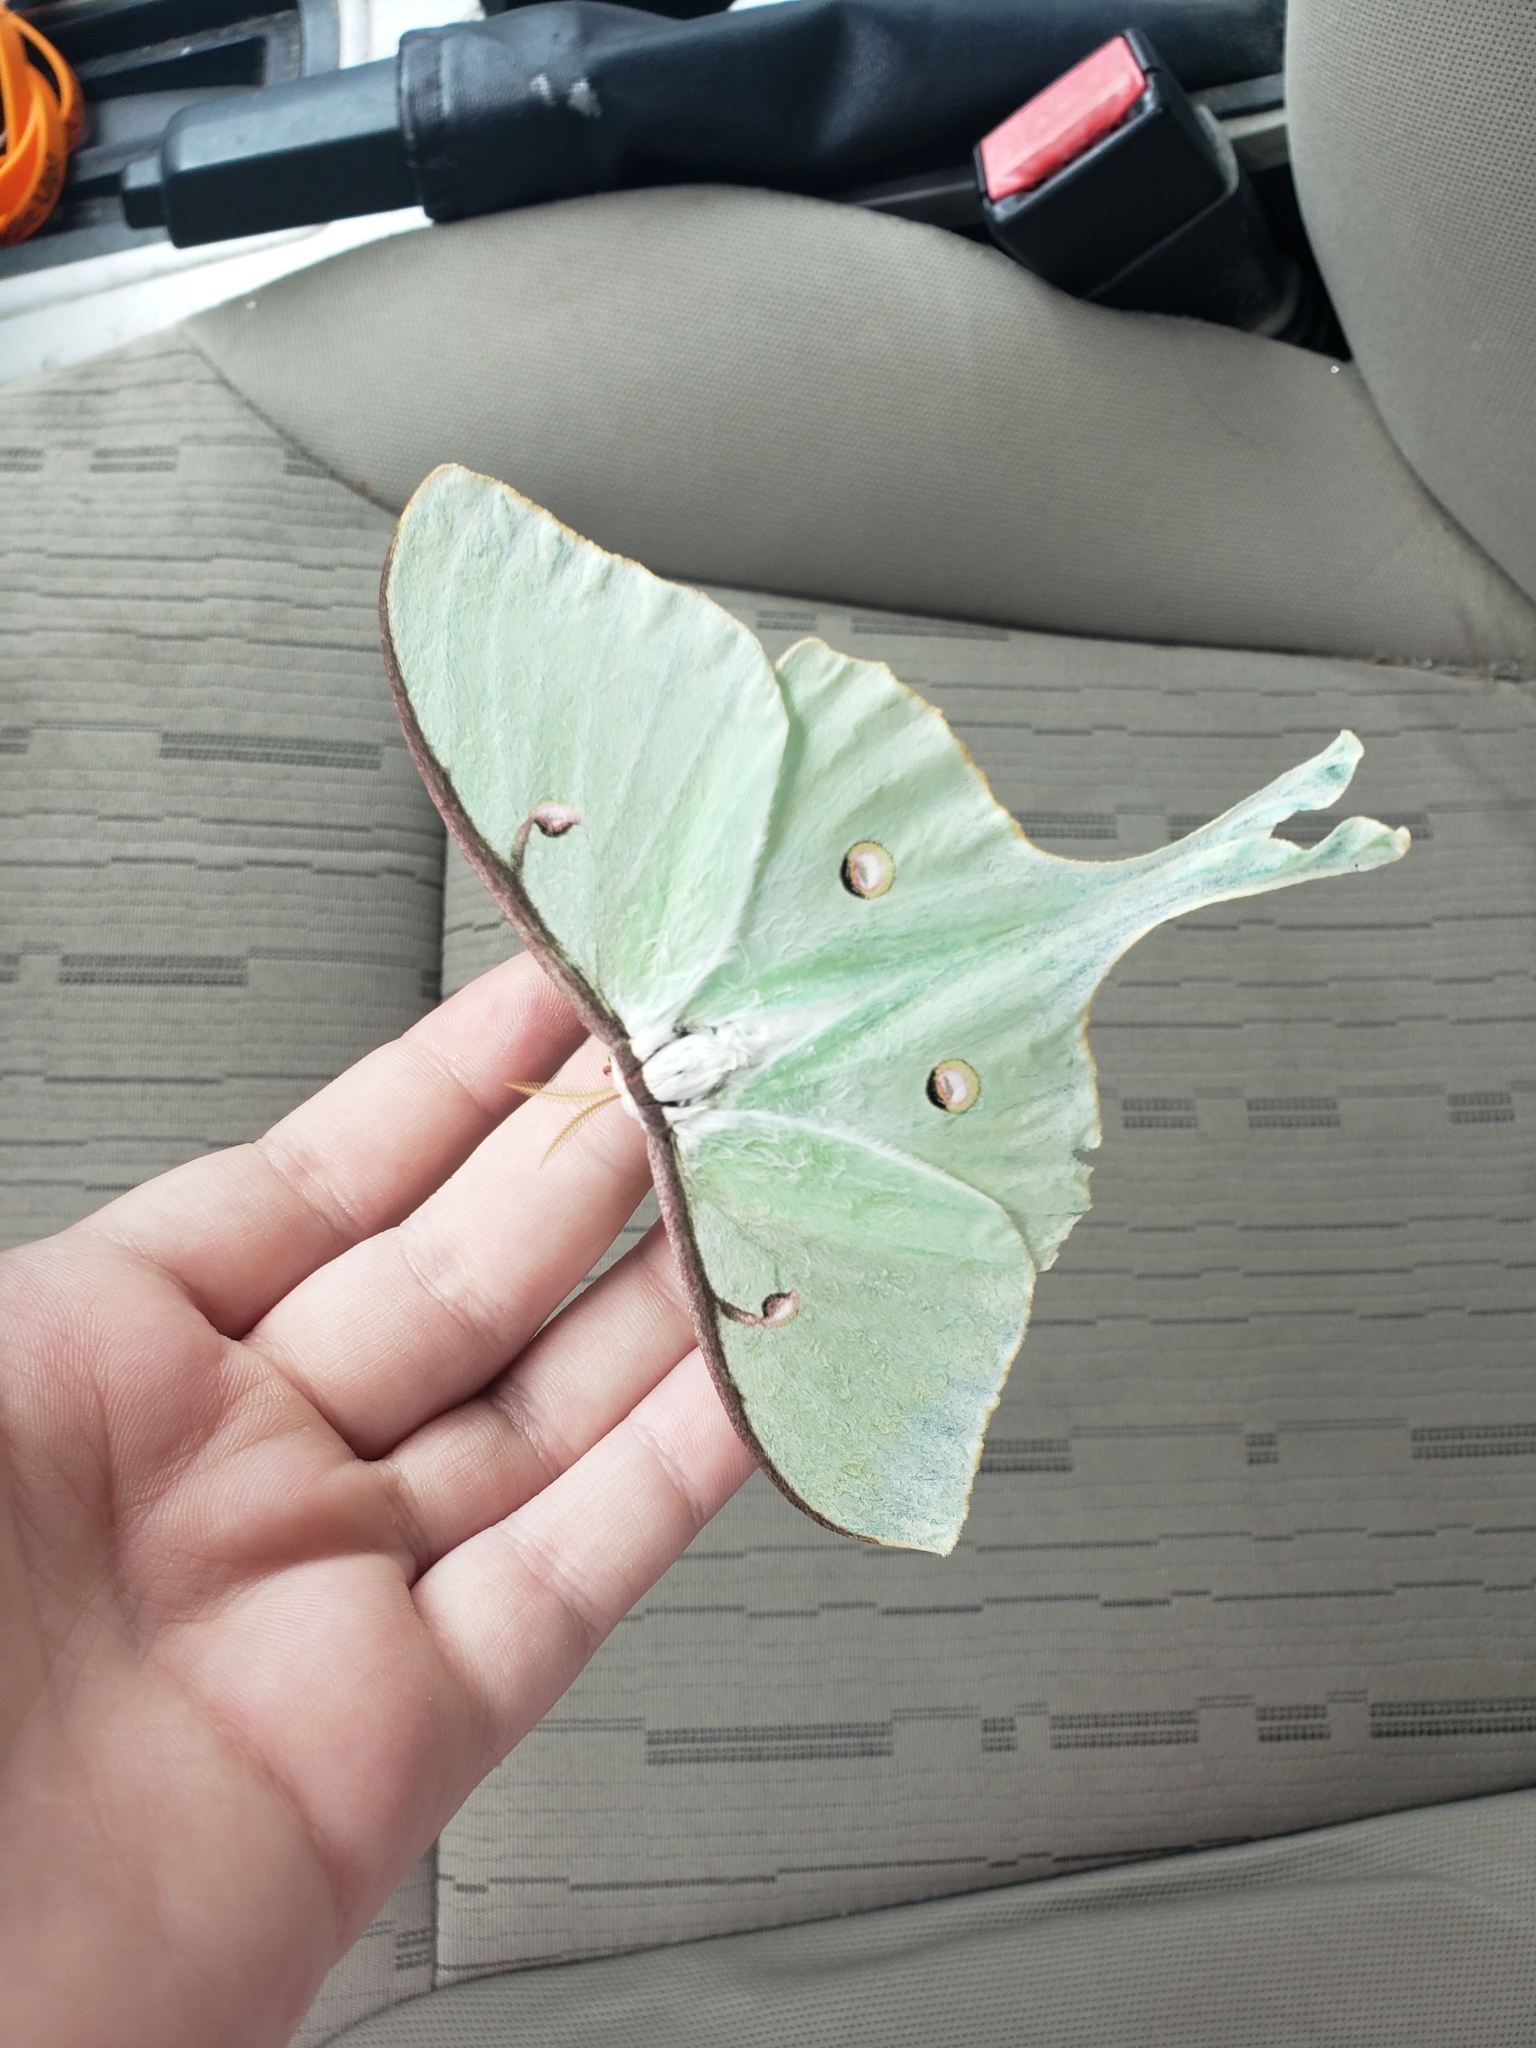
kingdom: Animalia
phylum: Arthropoda
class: Insecta
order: Lepidoptera
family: Saturniidae
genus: Actias
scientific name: Actias luna
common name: Luna moth
